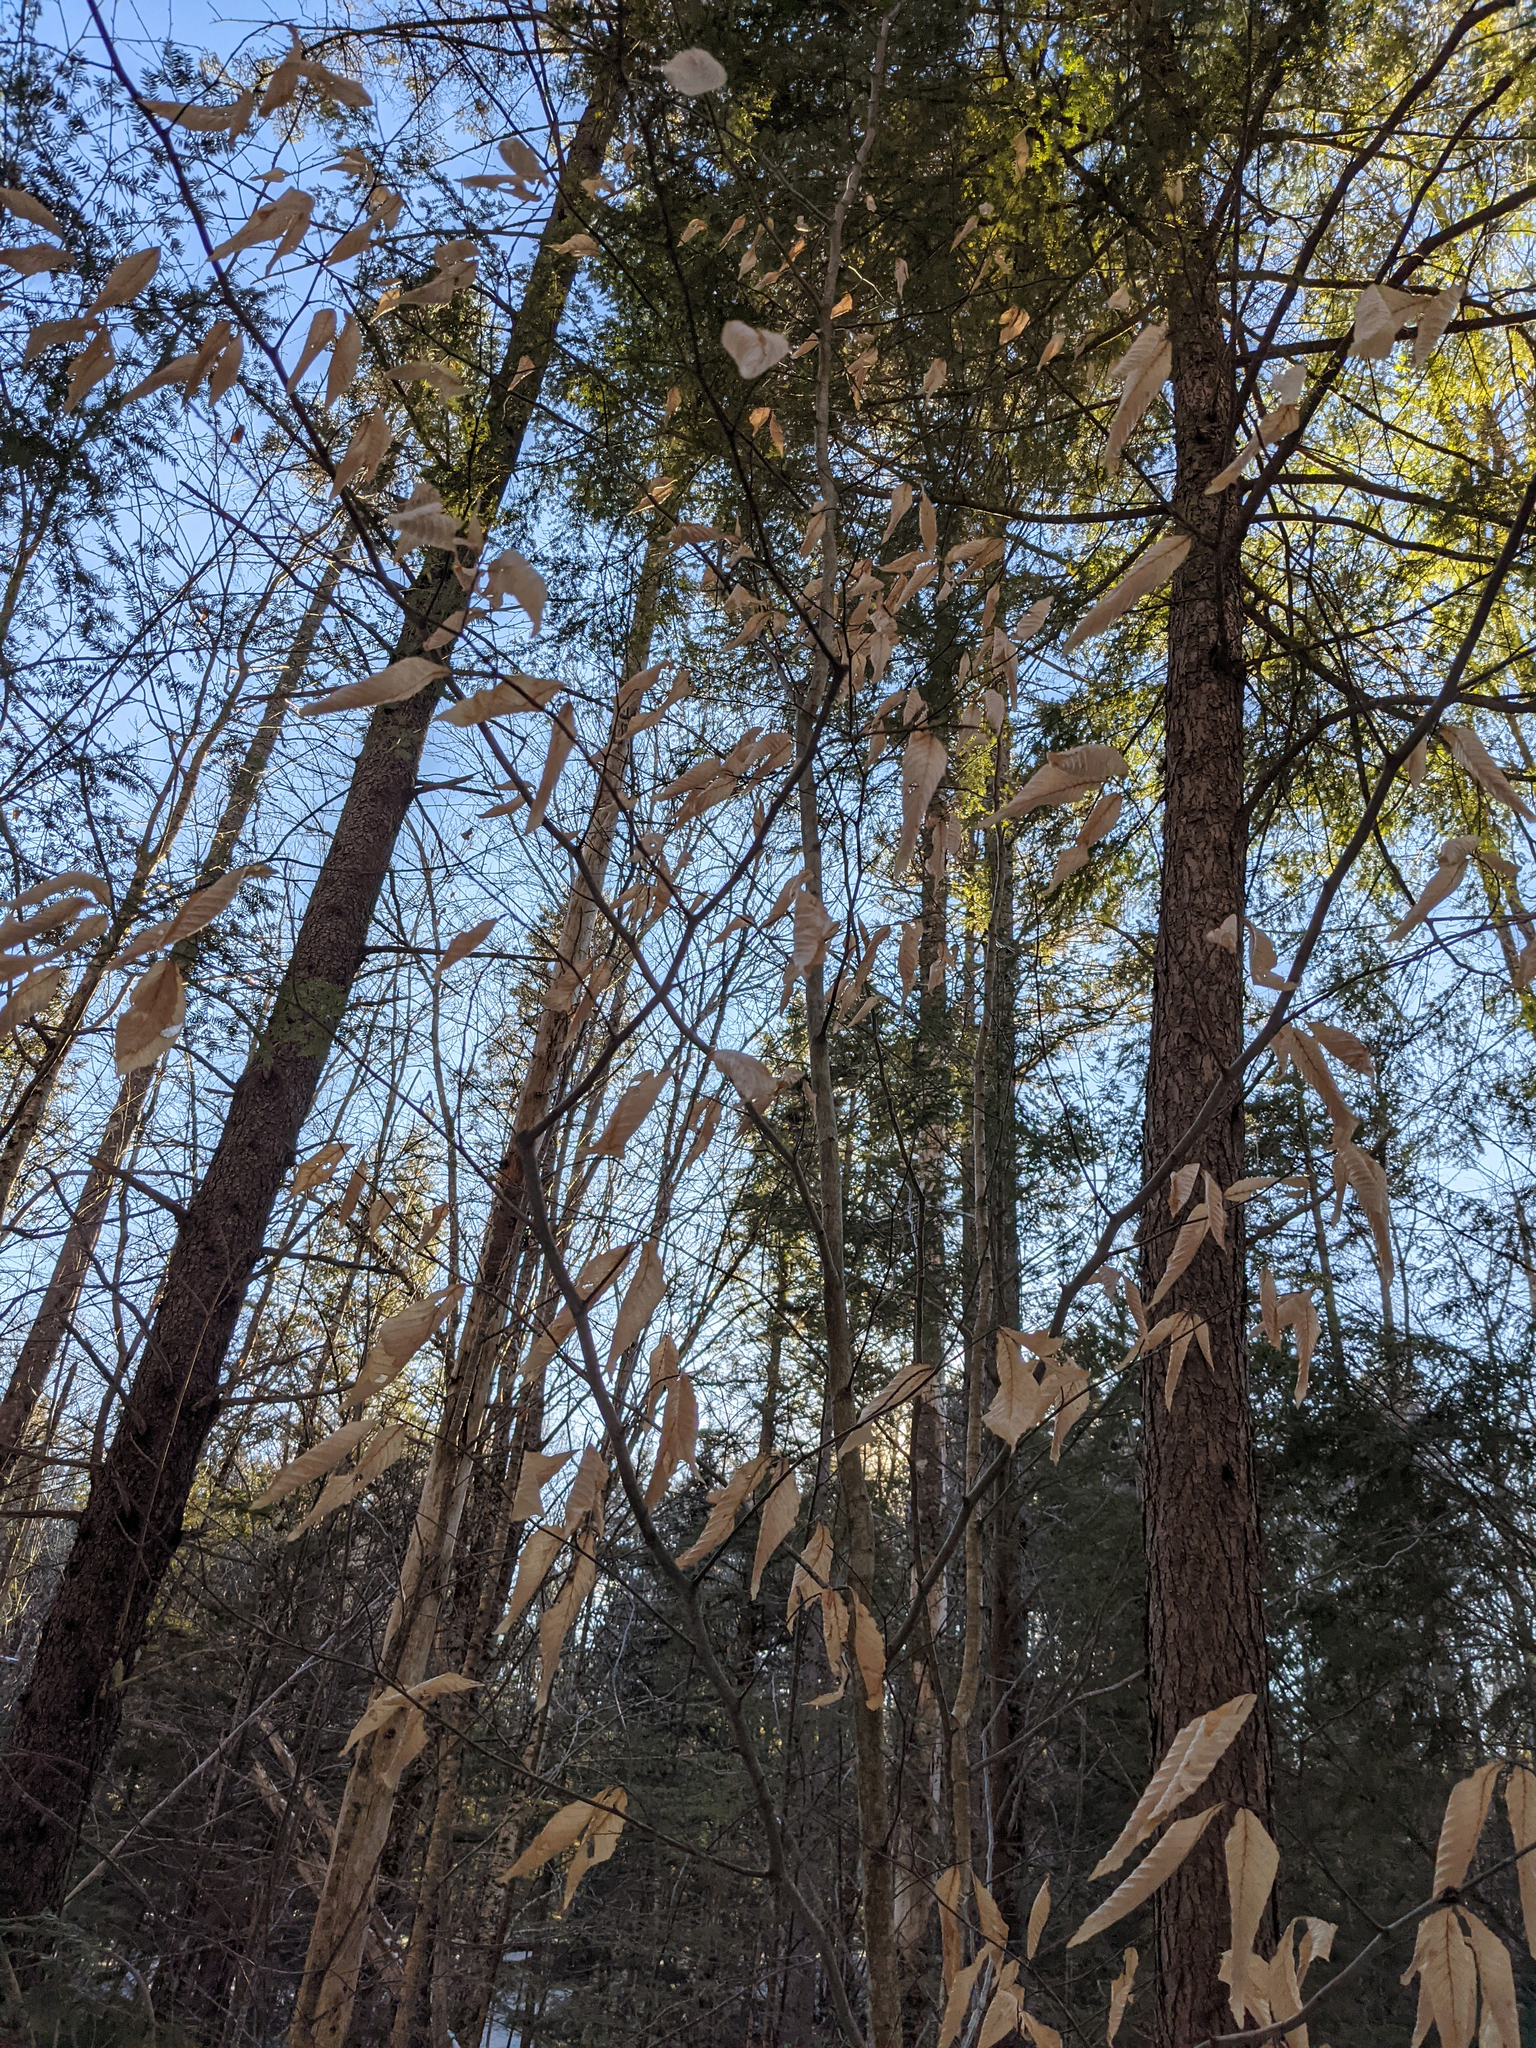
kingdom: Plantae
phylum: Tracheophyta
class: Magnoliopsida
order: Fagales
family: Fagaceae
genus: Fagus
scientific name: Fagus grandifolia
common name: American beech
